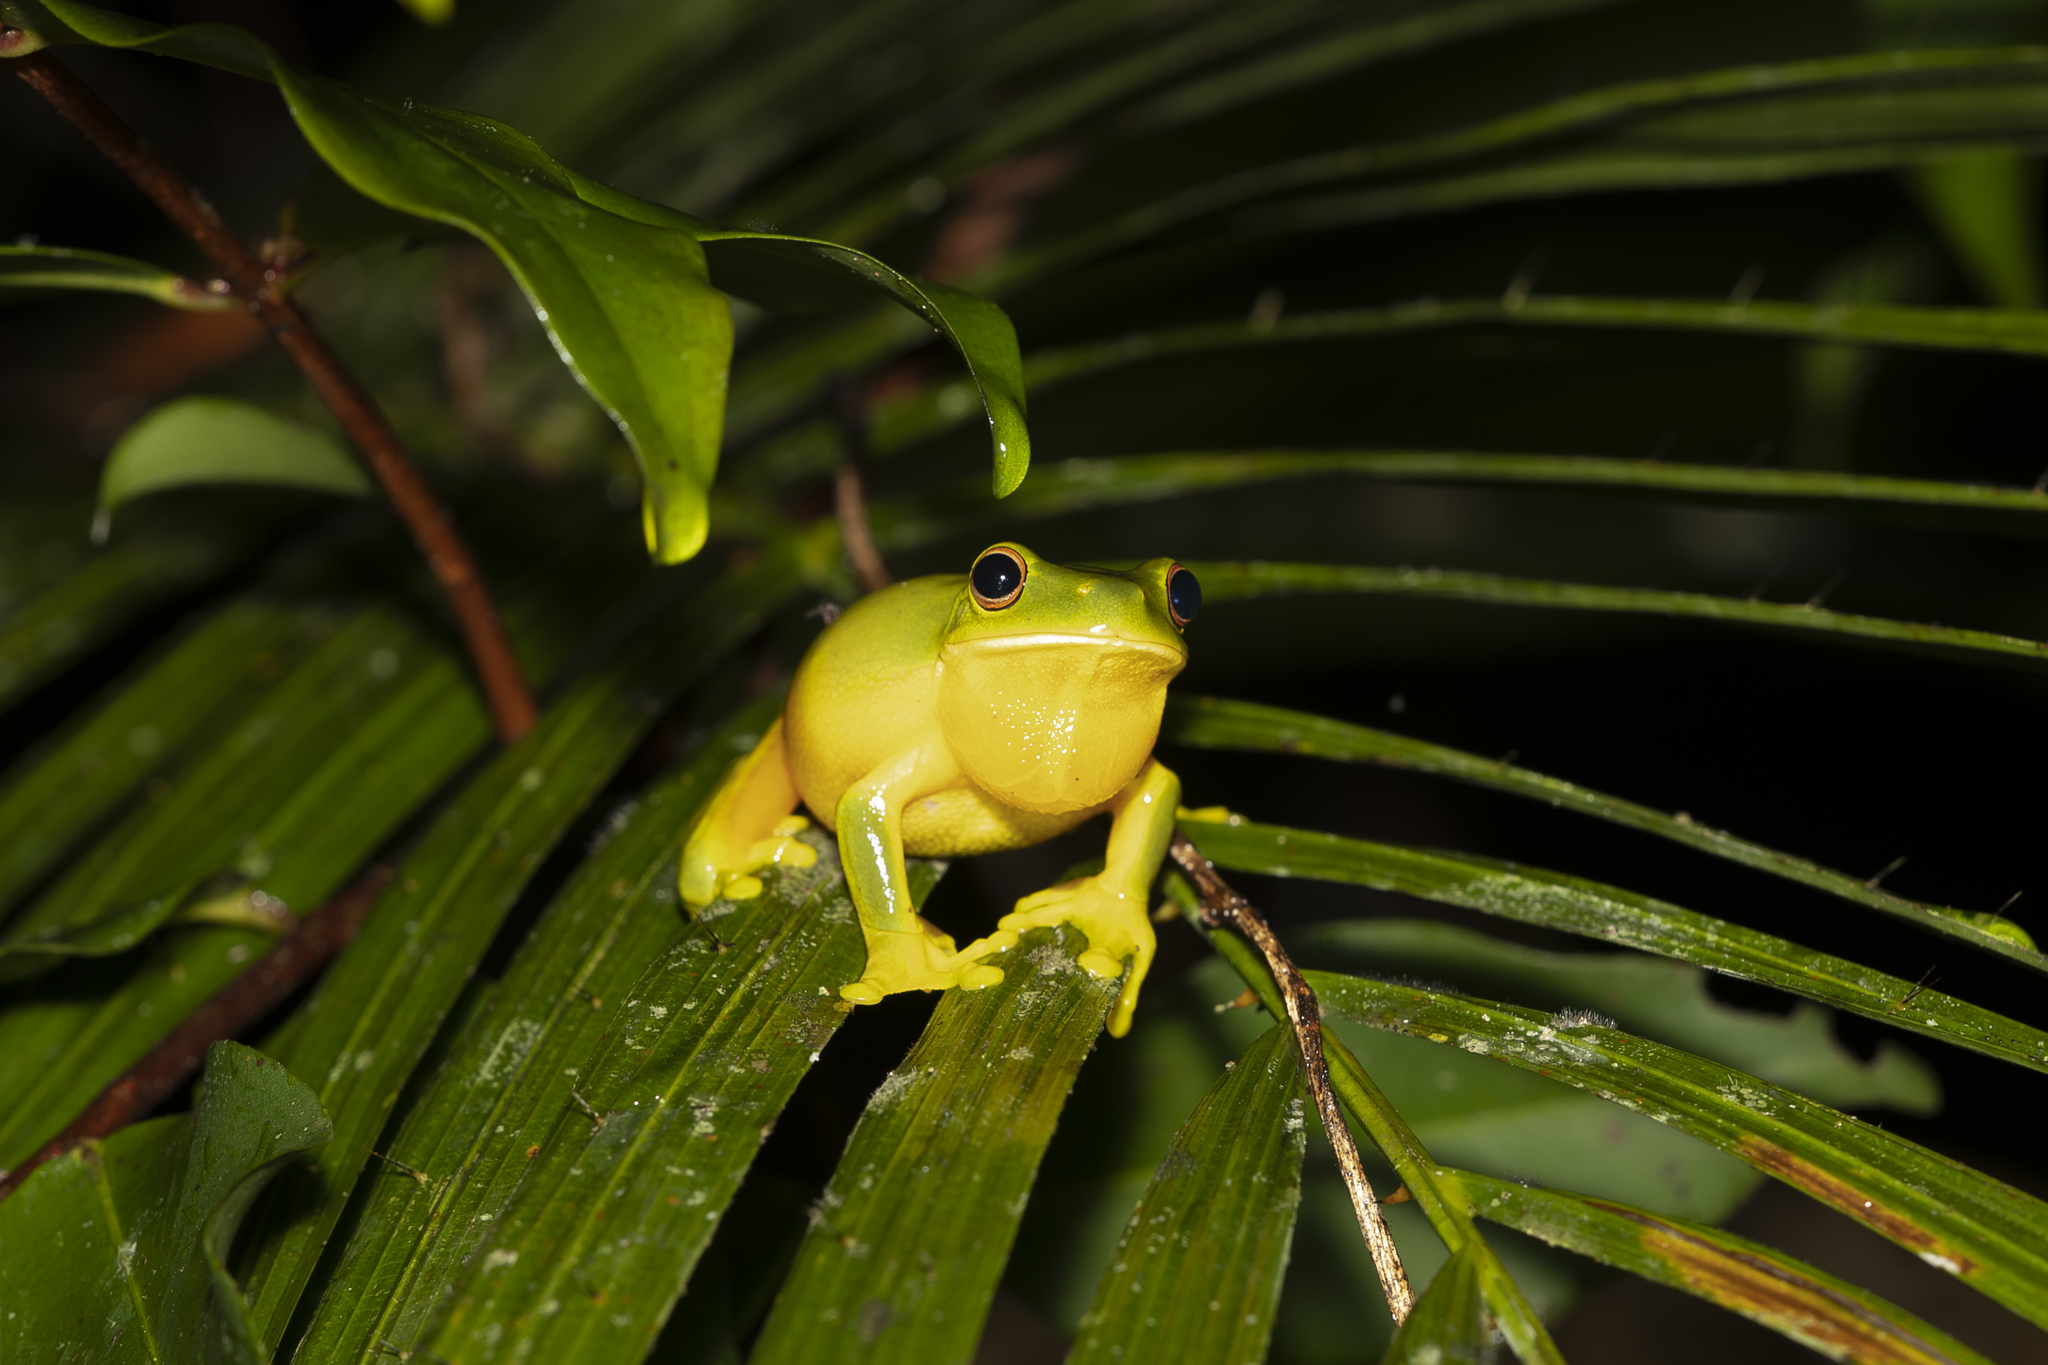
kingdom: Animalia
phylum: Chordata
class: Amphibia
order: Anura
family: Pelodryadidae
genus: Ranoidea
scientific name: Ranoidea xanthomera
